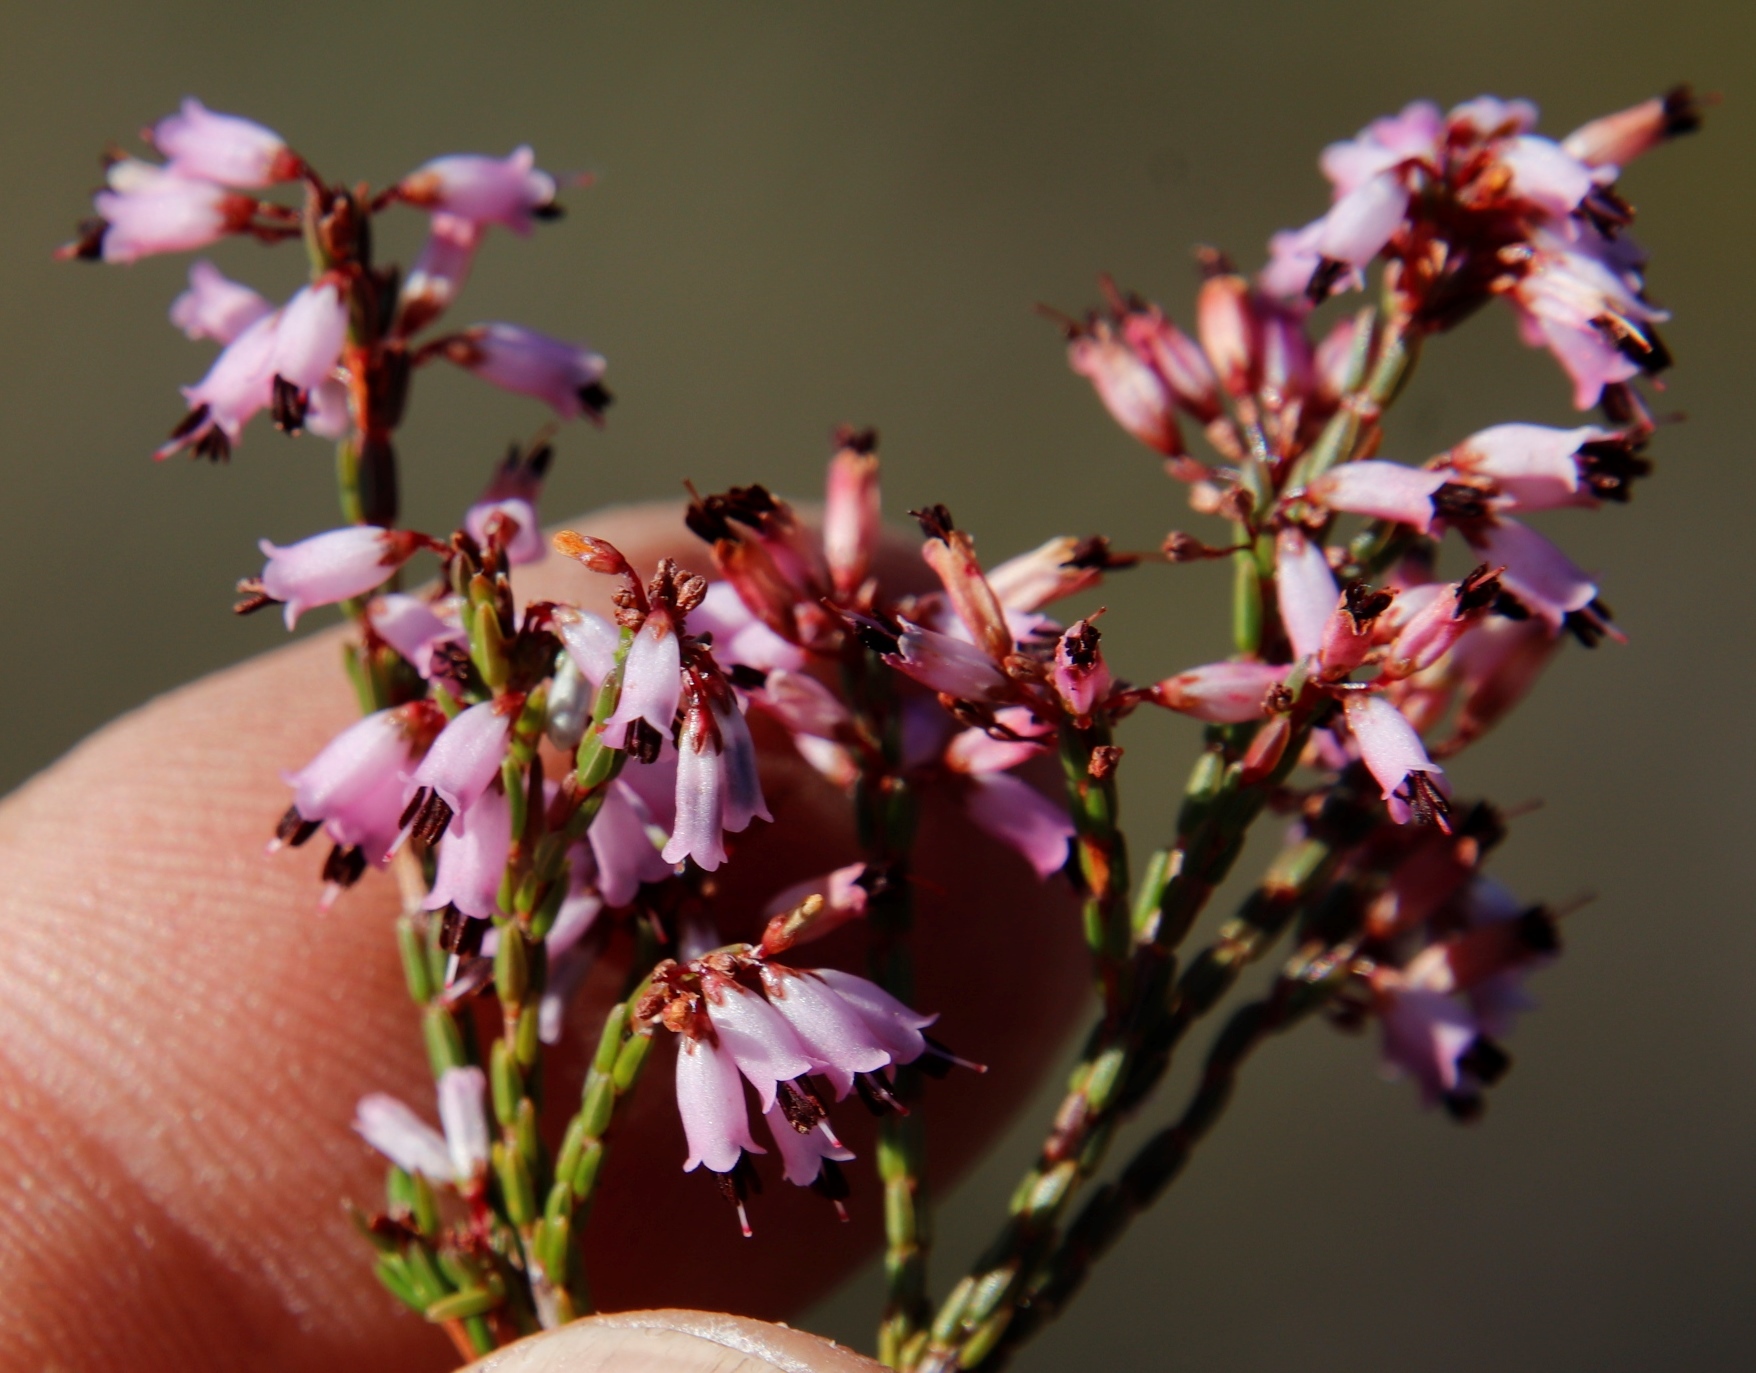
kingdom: Plantae
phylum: Tracheophyta
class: Magnoliopsida
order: Ericales
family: Ericaceae
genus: Erica
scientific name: Erica equisetifolia
